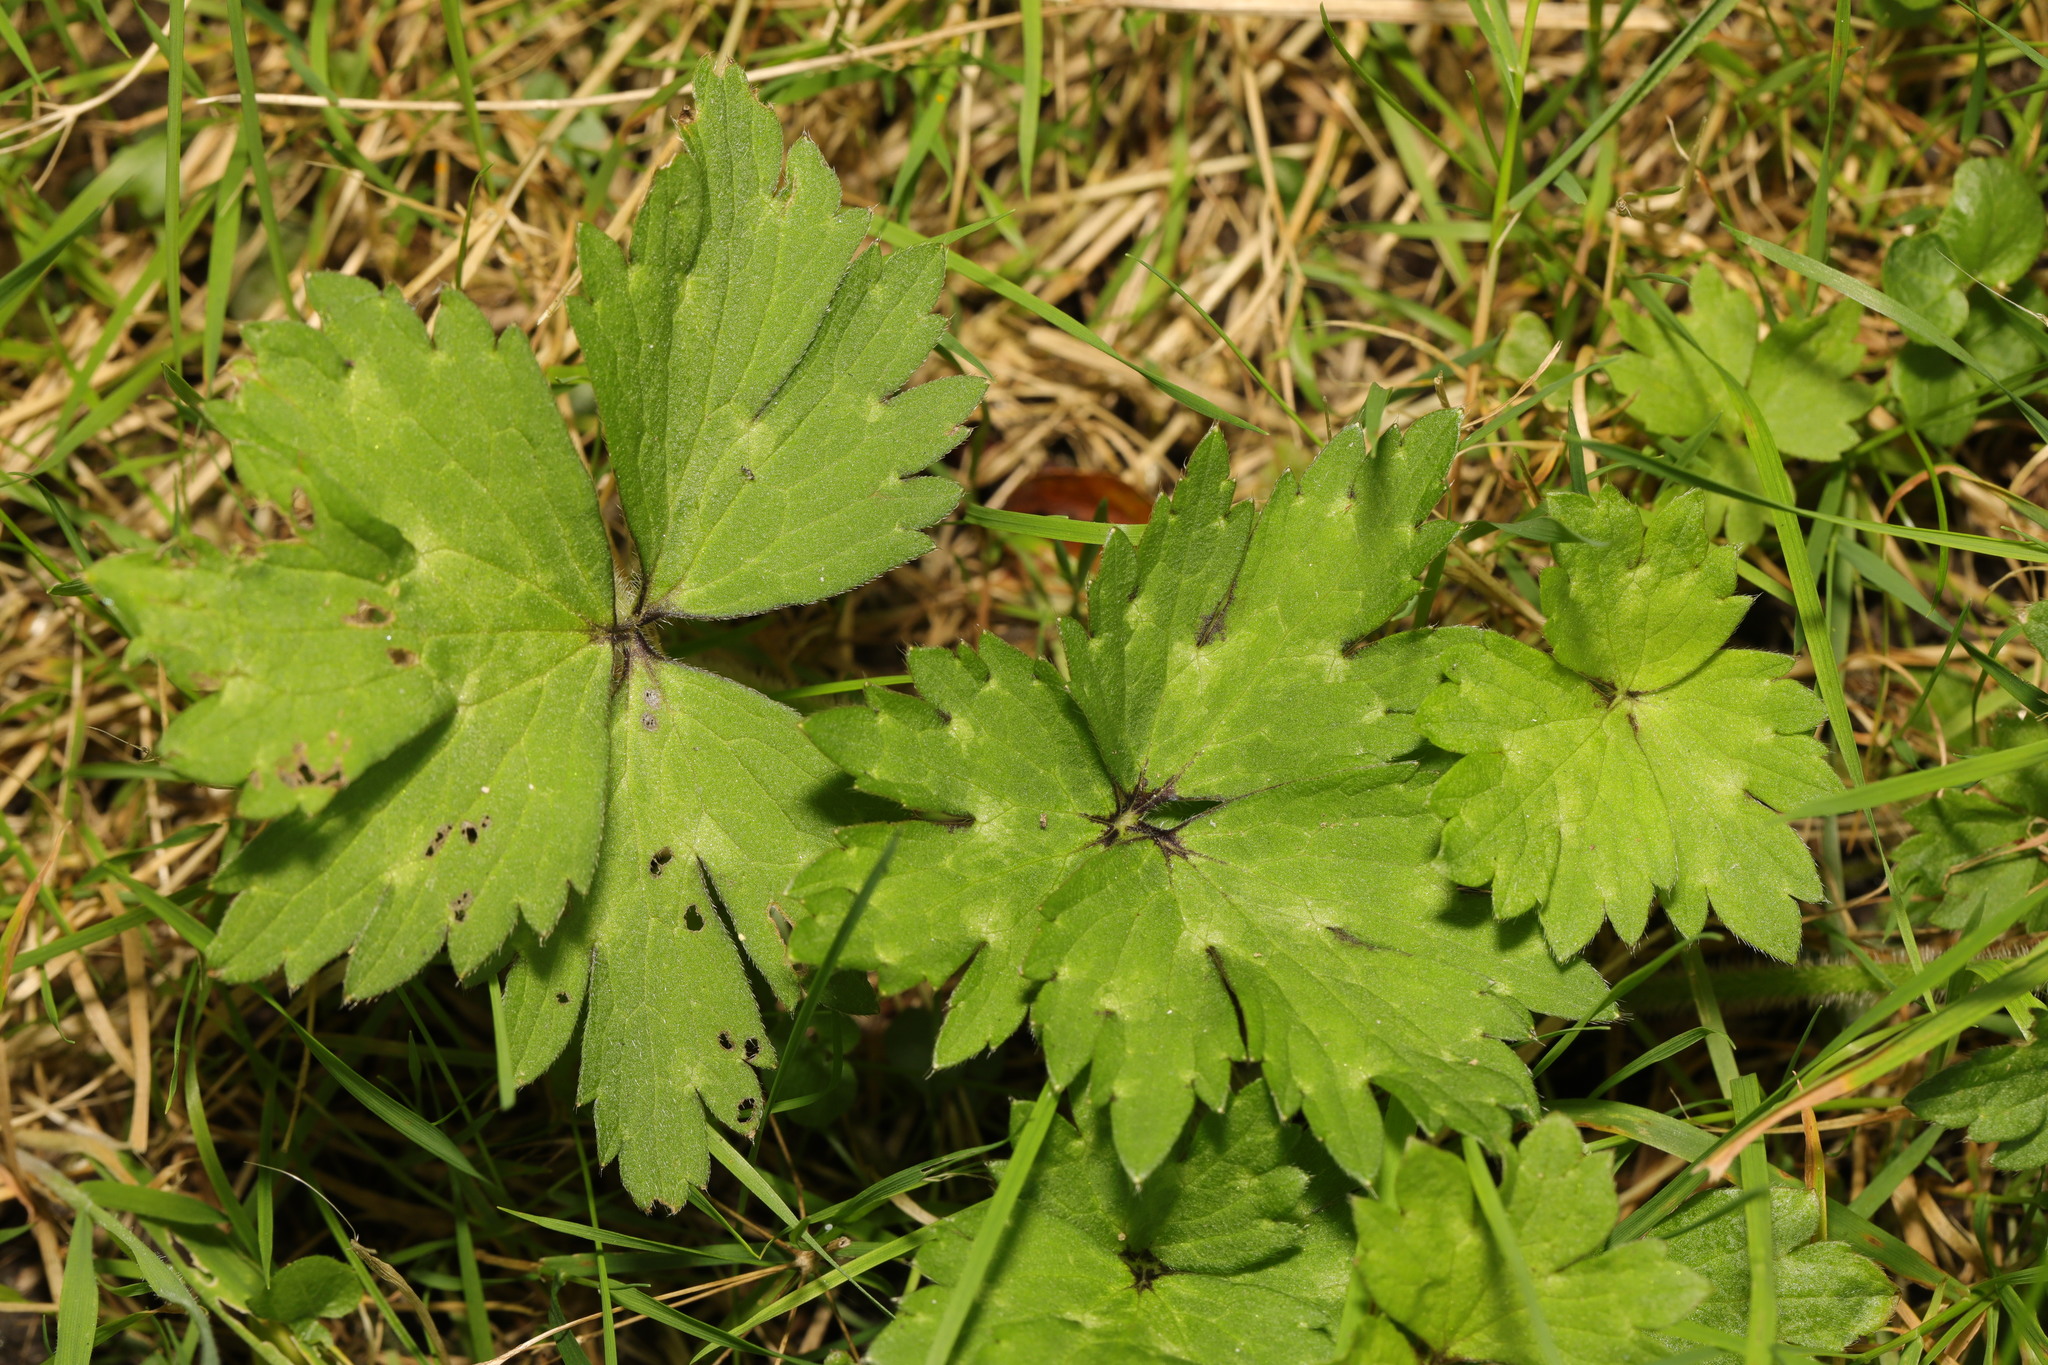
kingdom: Plantae
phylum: Tracheophyta
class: Magnoliopsida
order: Ranunculales
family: Ranunculaceae
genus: Ranunculus
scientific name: Ranunculus repens
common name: Creeping buttercup
